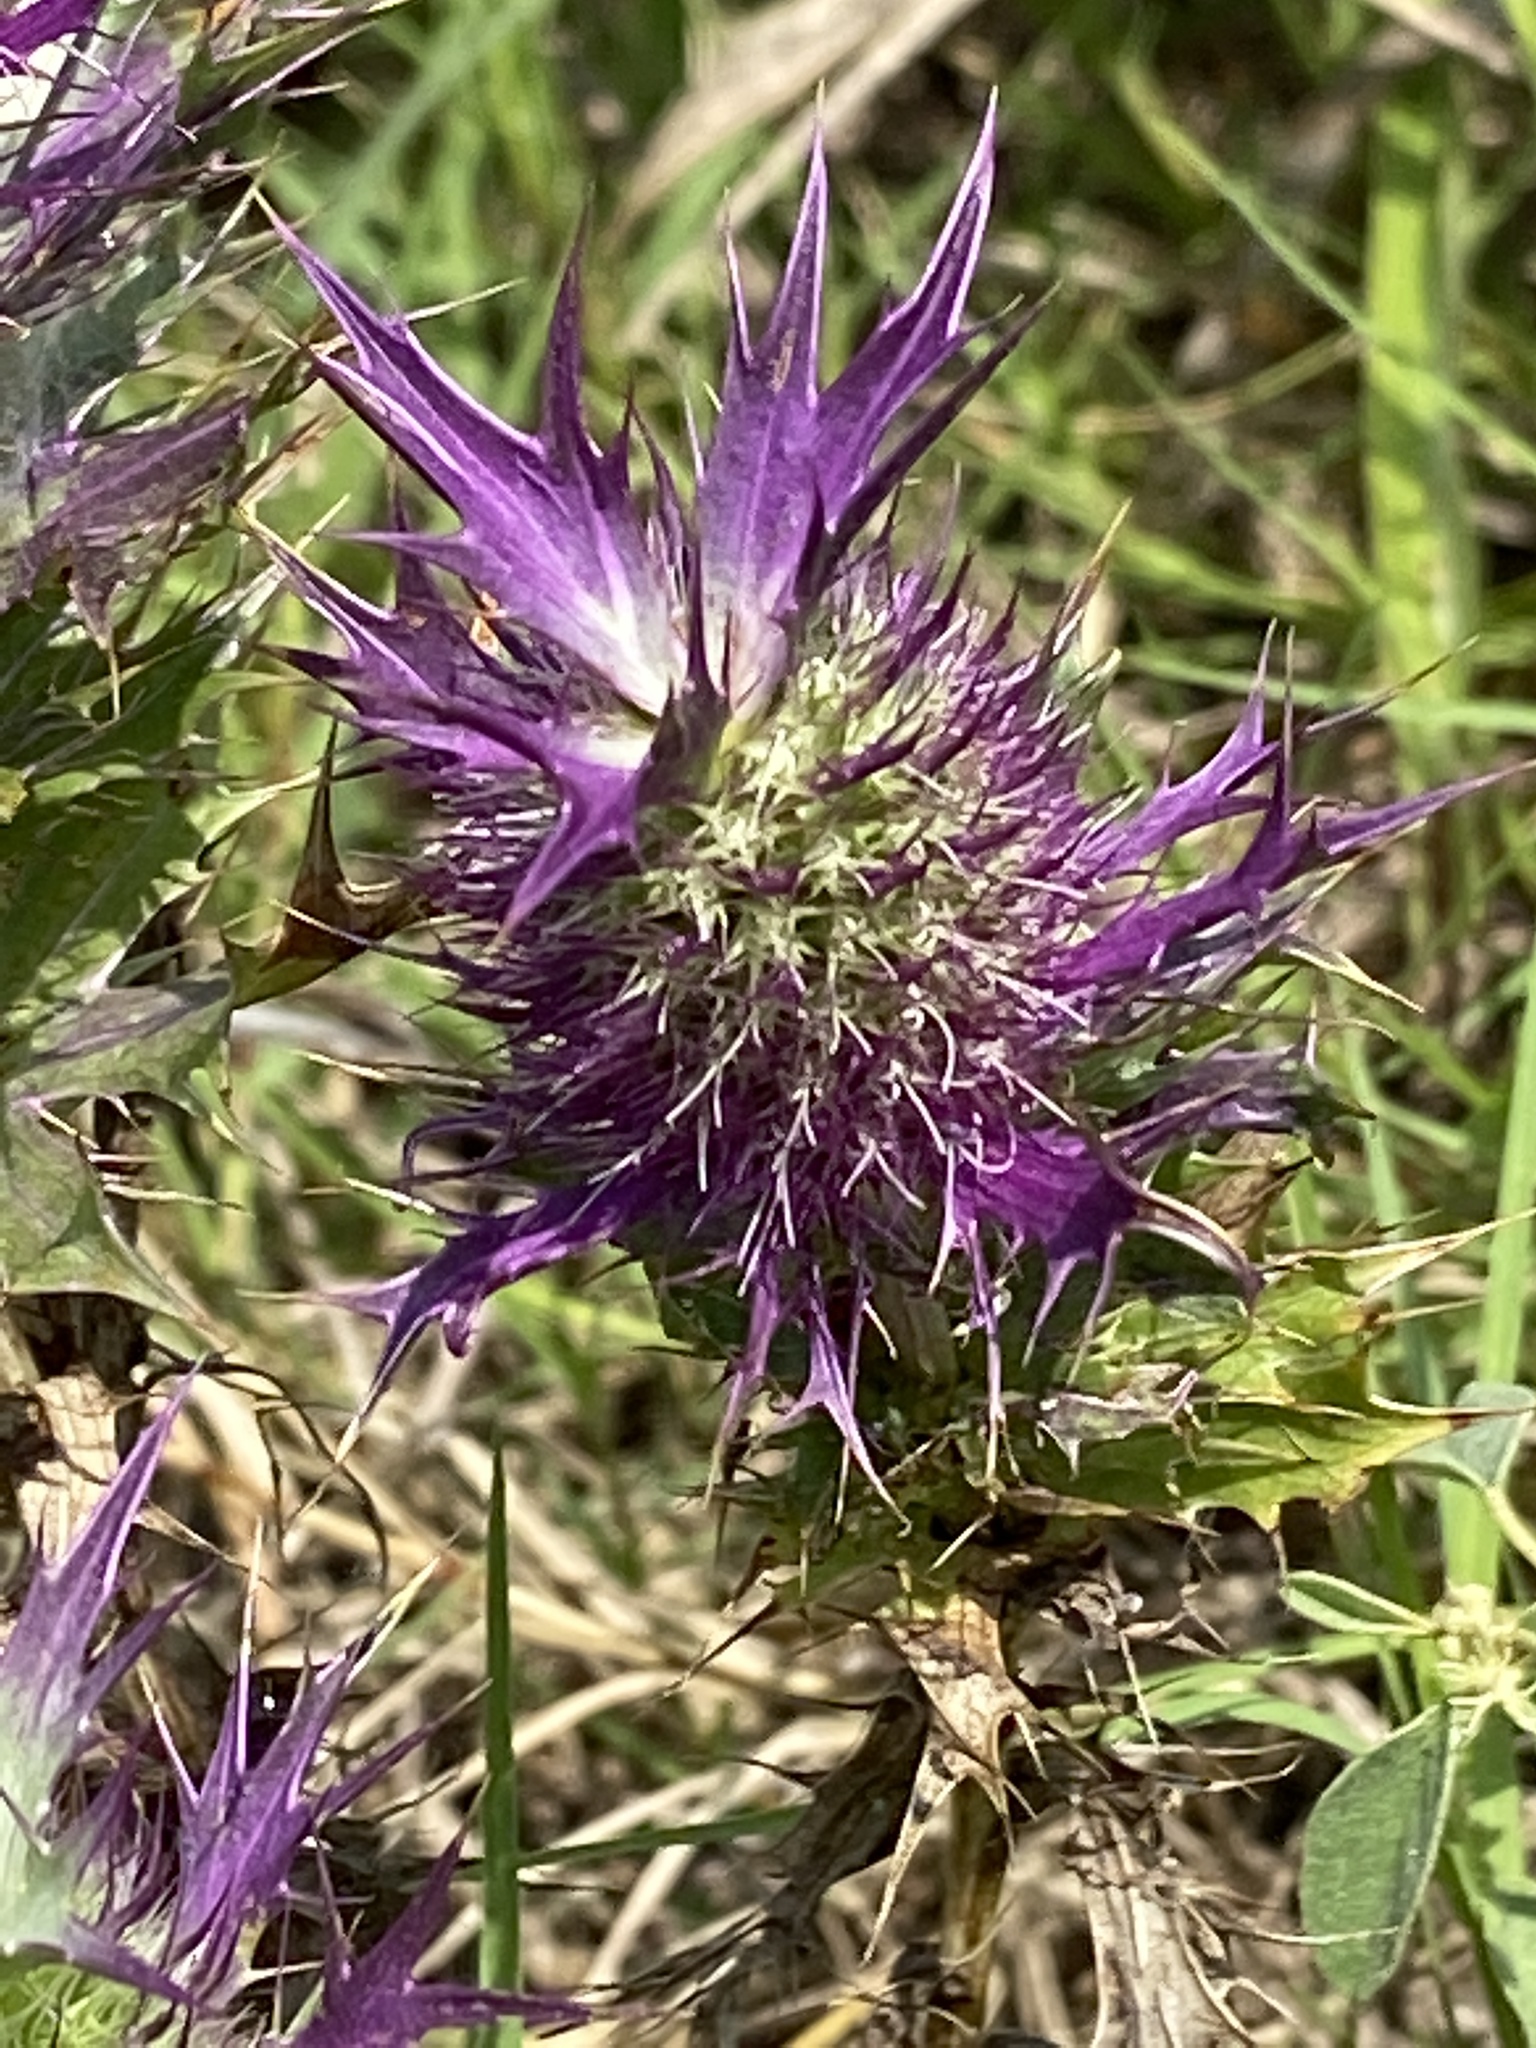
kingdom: Plantae
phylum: Tracheophyta
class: Magnoliopsida
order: Apiales
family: Apiaceae
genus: Eryngium
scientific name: Eryngium leavenworthii
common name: Leavenworth's eryngo
